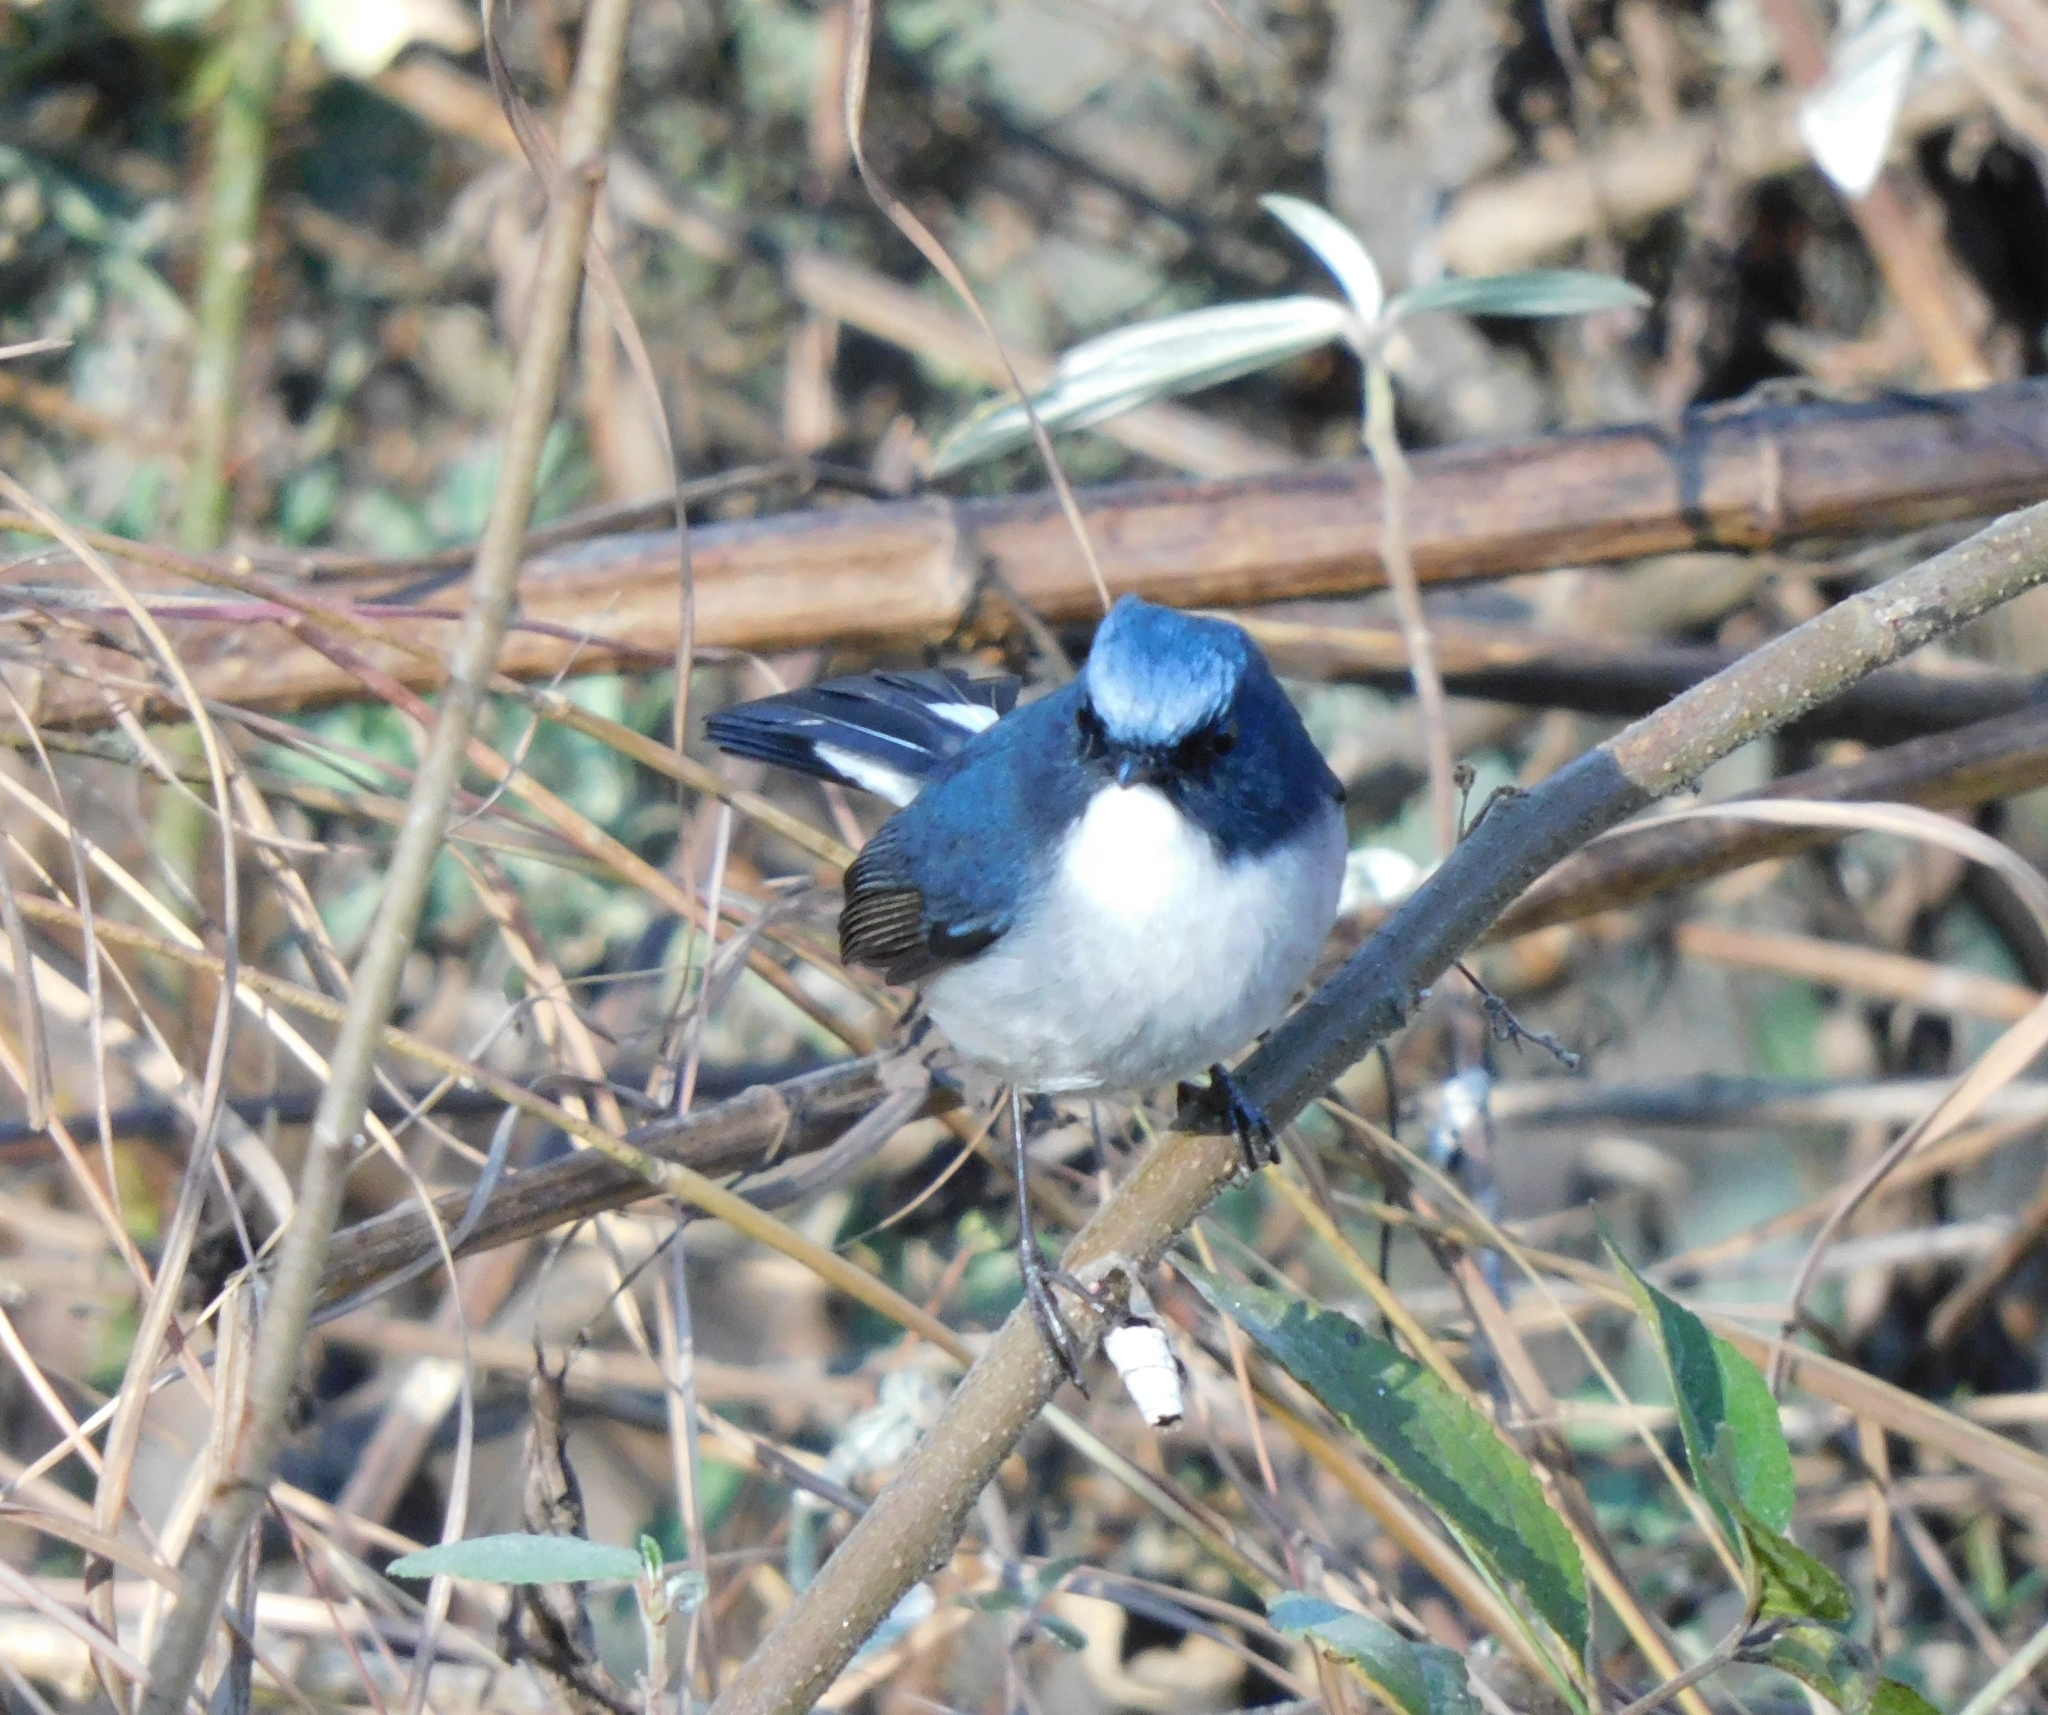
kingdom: Animalia
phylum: Chordata
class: Aves
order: Passeriformes
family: Muscicapidae
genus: Ficedula
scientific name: Ficedula tricolor
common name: Slaty-blue flycatcher
